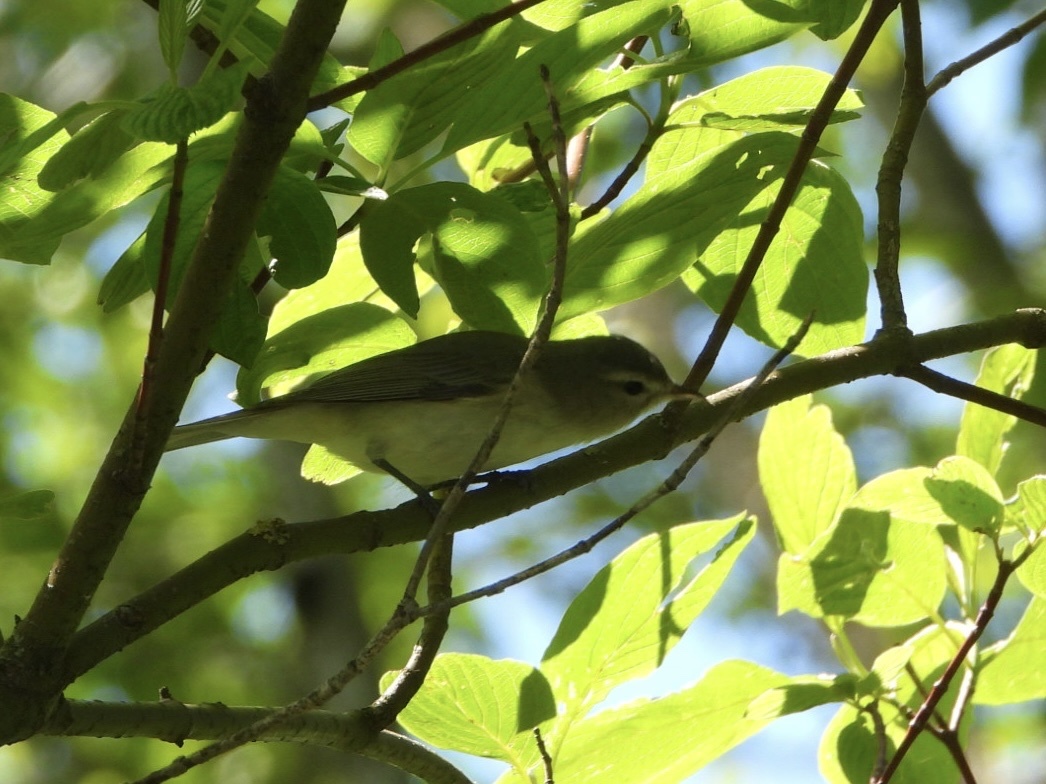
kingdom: Animalia
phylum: Chordata
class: Aves
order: Passeriformes
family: Vireonidae
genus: Vireo
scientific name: Vireo gilvus
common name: Warbling vireo
